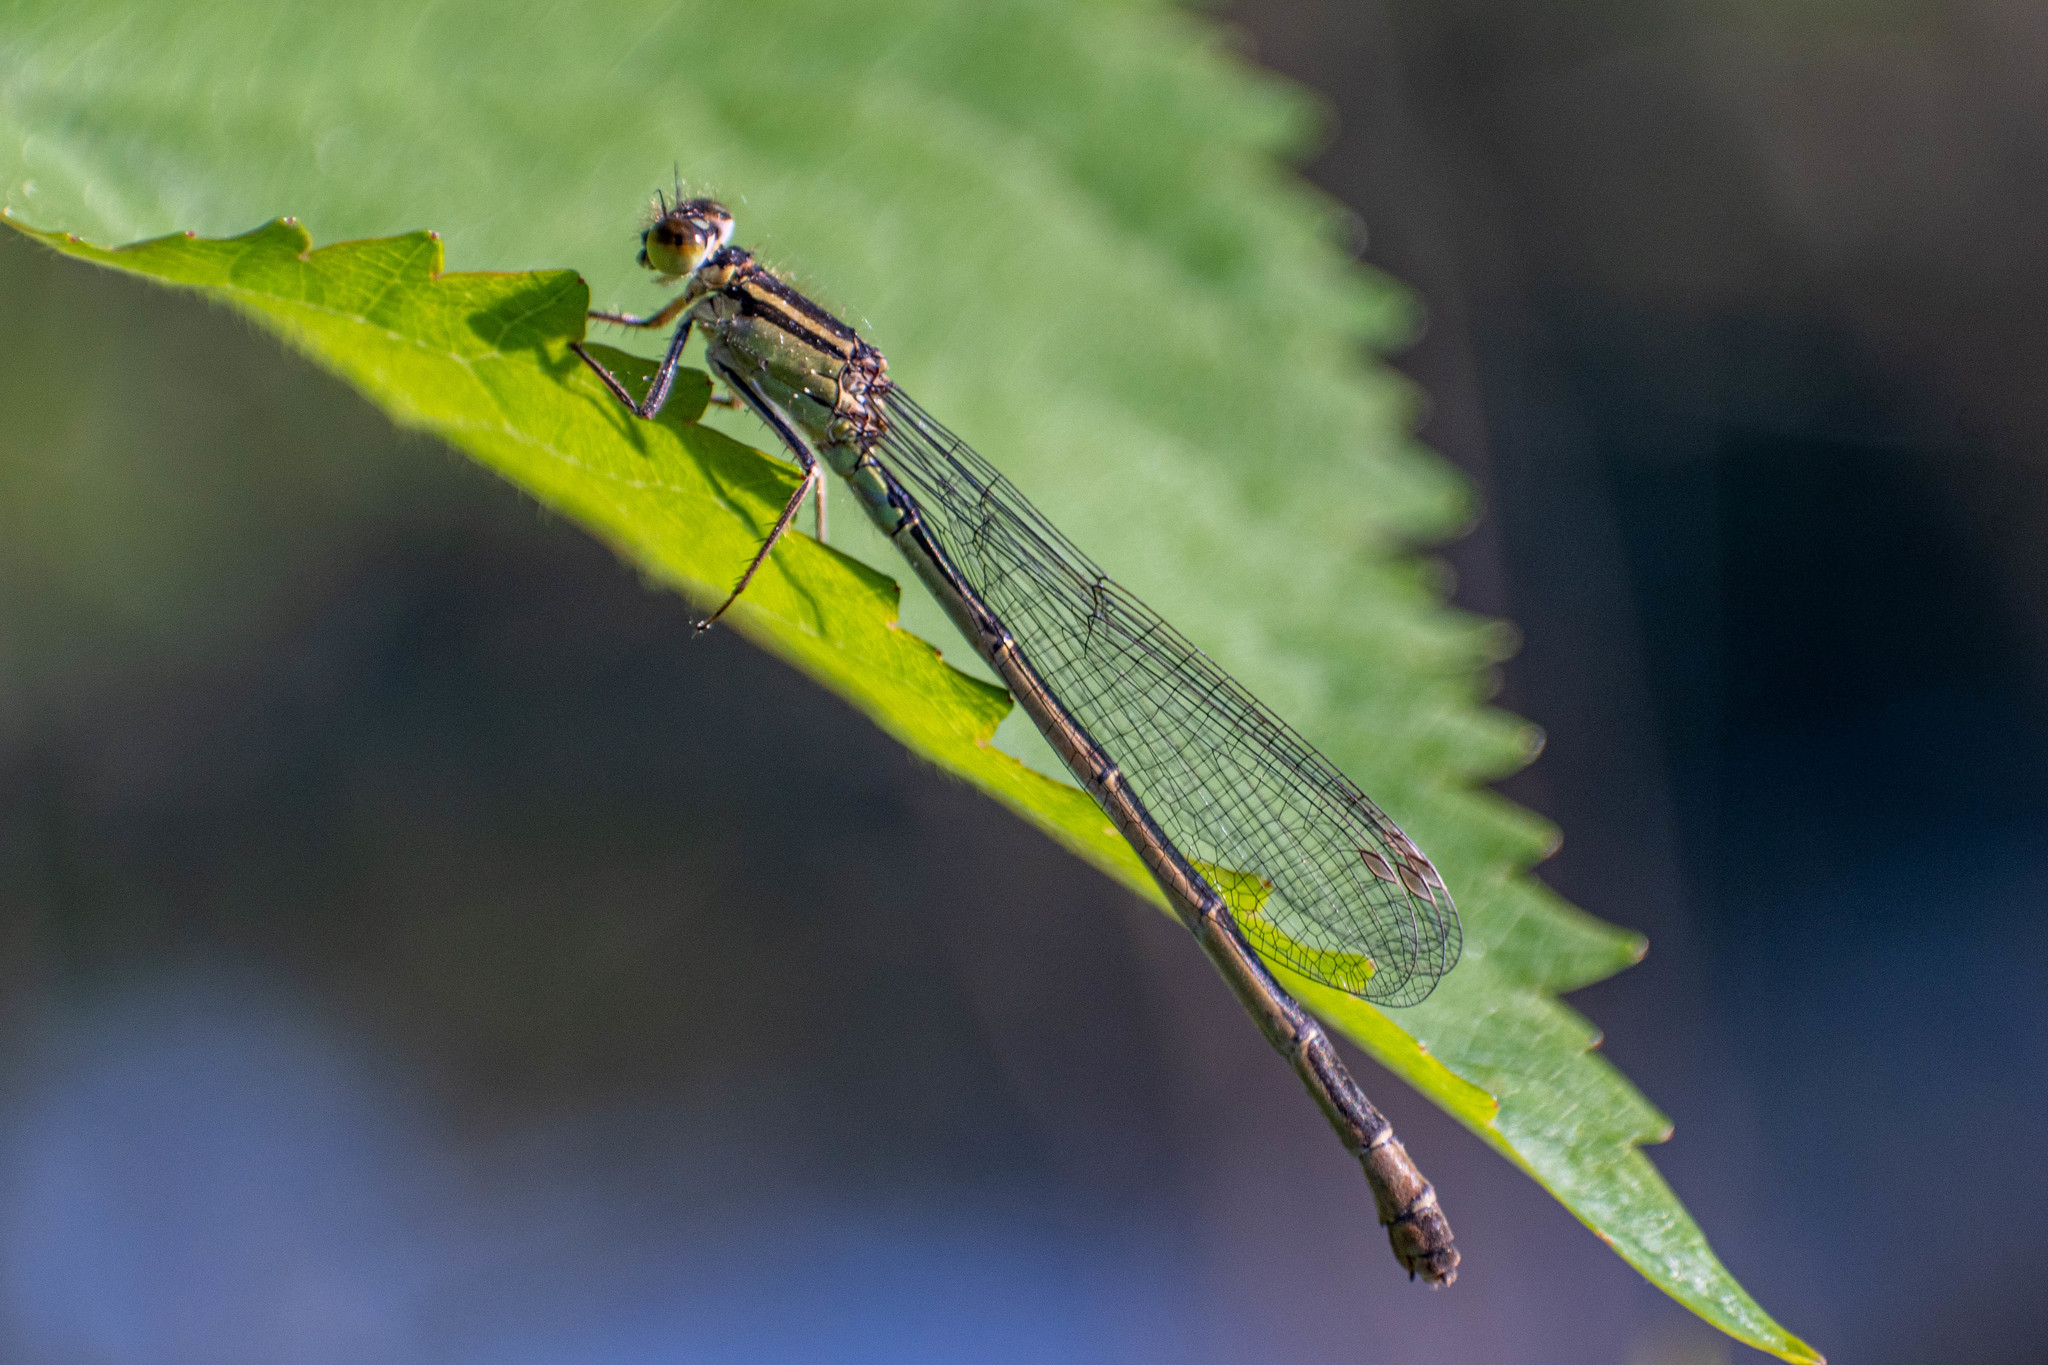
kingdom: Animalia
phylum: Arthropoda
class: Insecta
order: Odonata
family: Coenagrionidae
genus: Ischnura
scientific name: Ischnura elegans
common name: Blue-tailed damselfly
